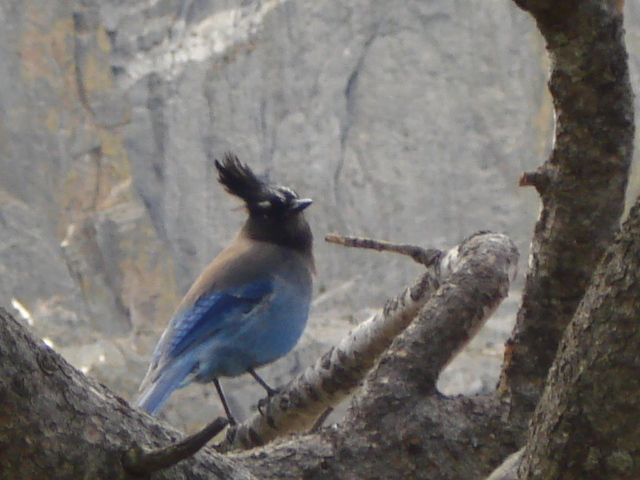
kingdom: Animalia
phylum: Chordata
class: Aves
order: Passeriformes
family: Corvidae
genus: Cyanocitta
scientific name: Cyanocitta stelleri
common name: Steller's jay
